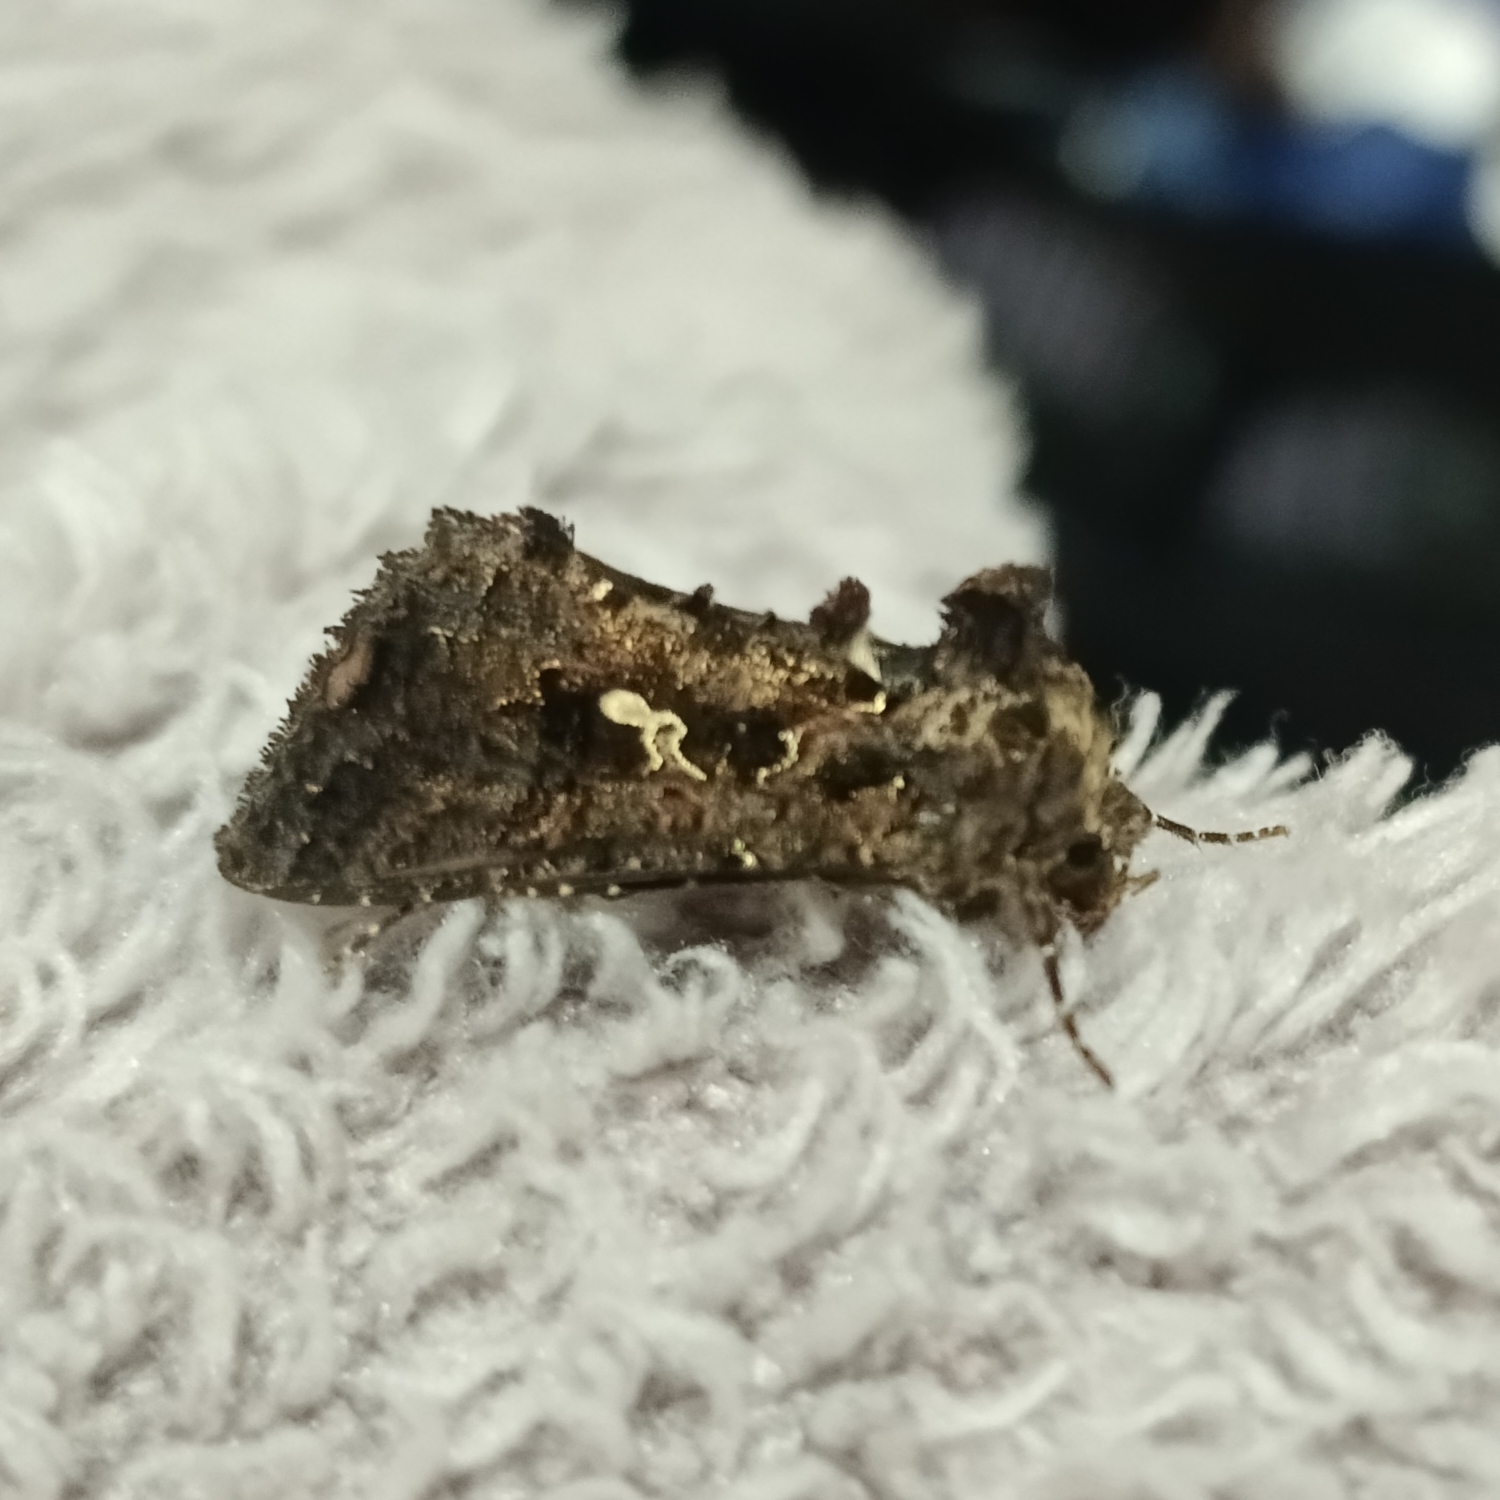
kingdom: Animalia
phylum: Arthropoda
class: Insecta
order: Lepidoptera
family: Noctuidae
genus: Ctenoplusia
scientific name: Ctenoplusia limbirena
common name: Scar bank gem
